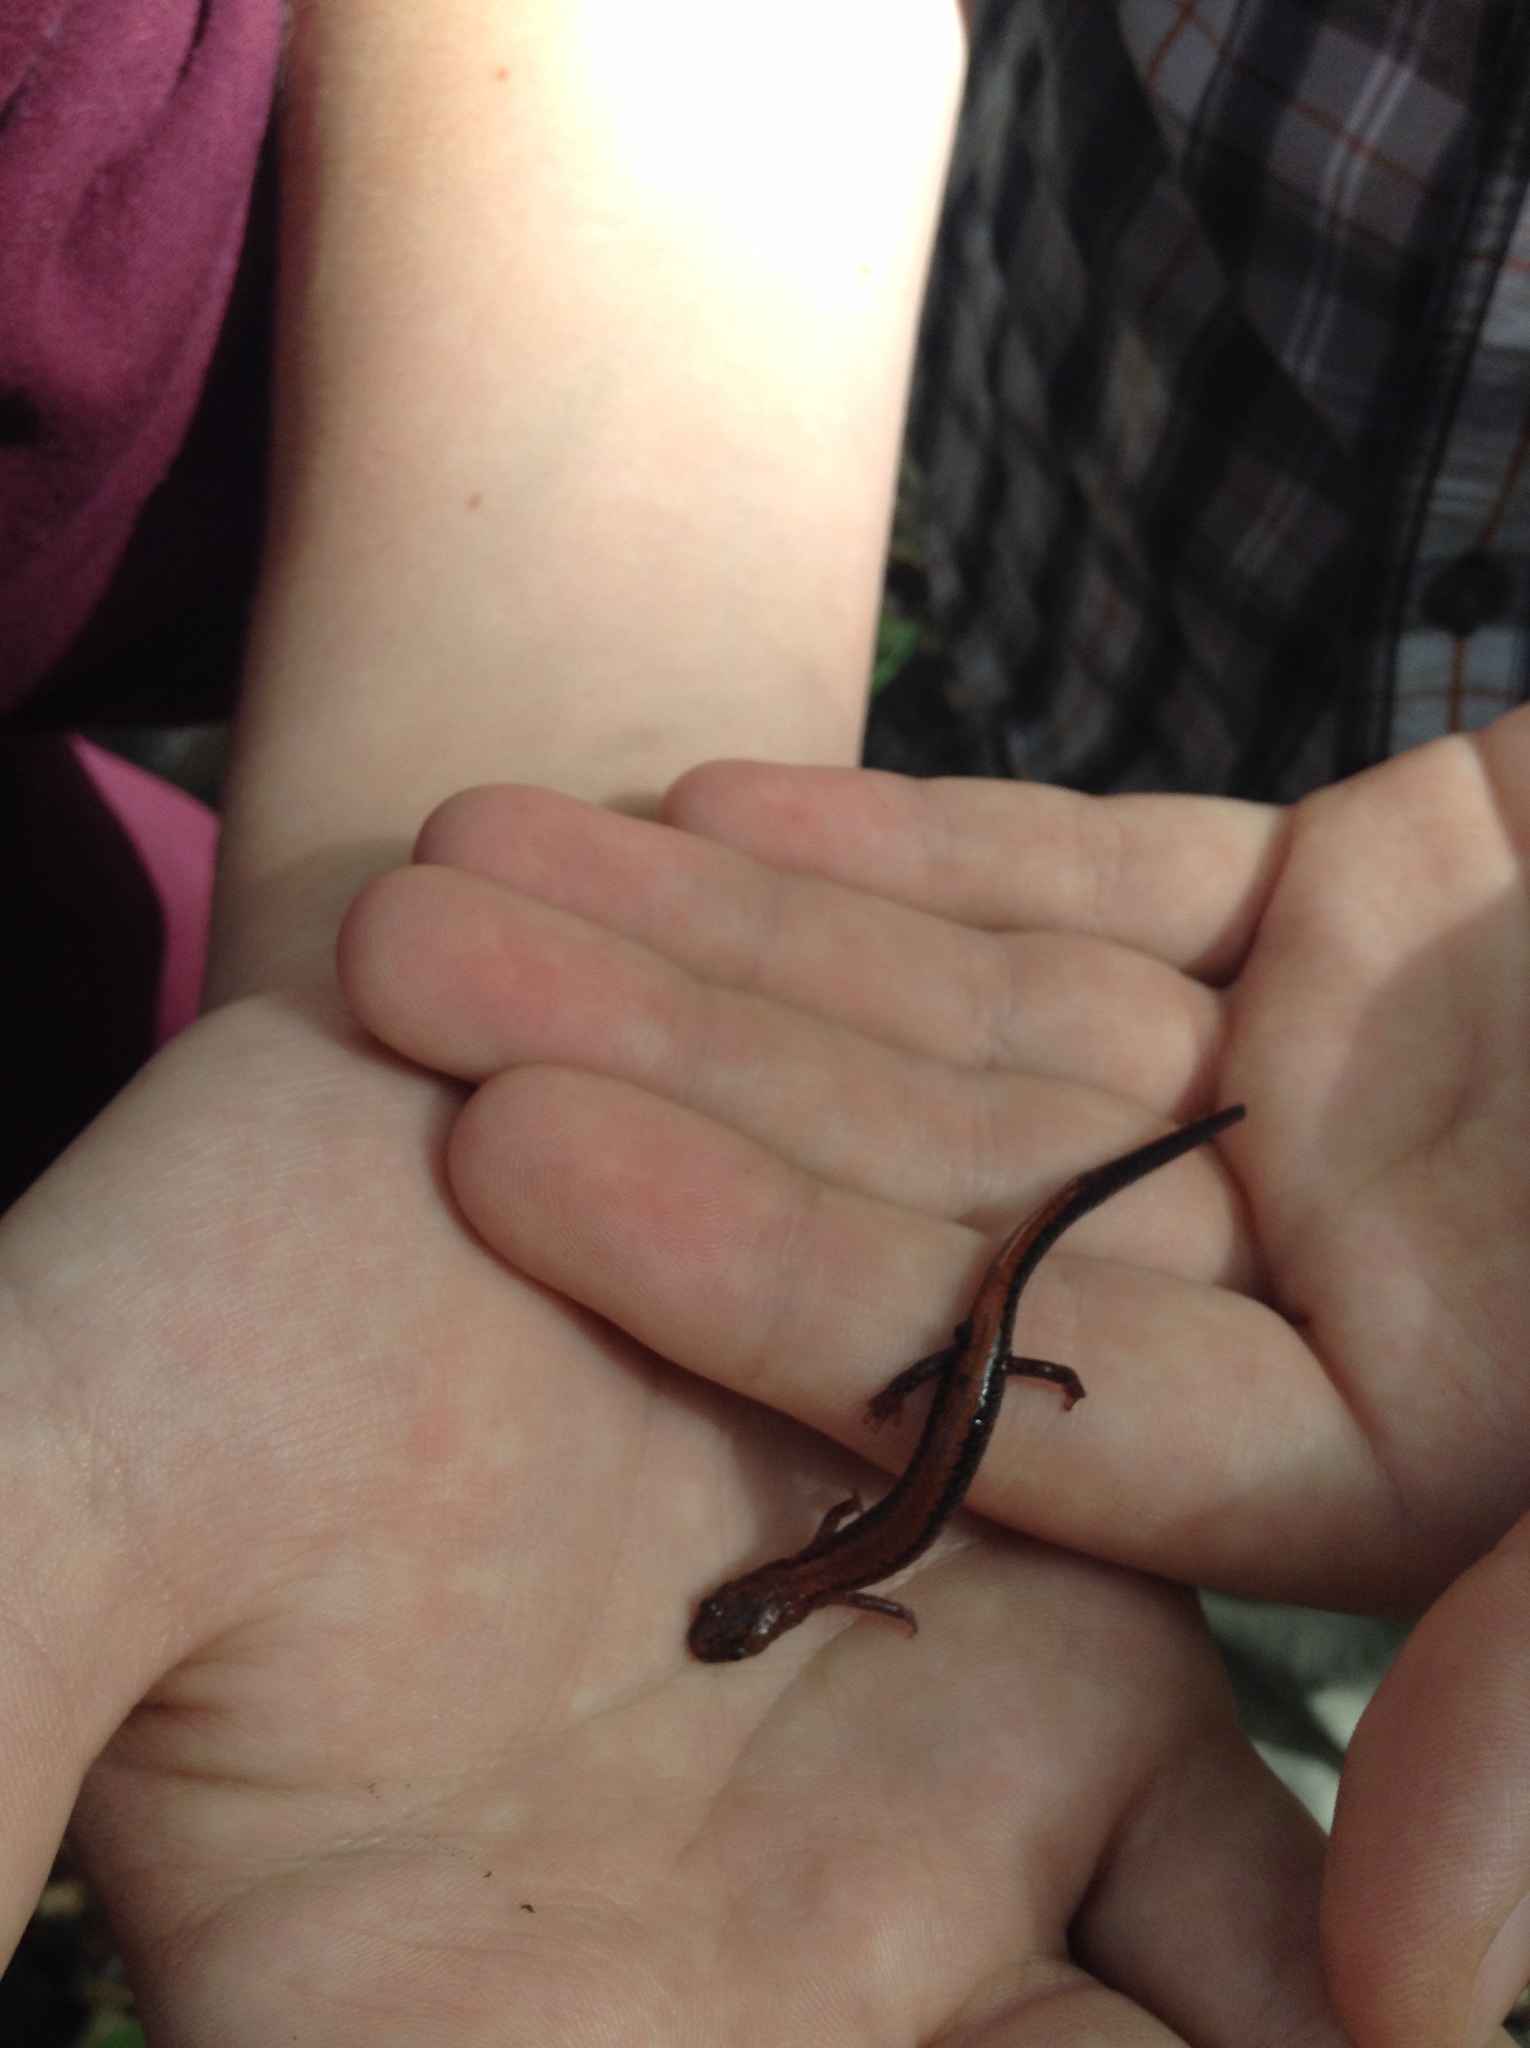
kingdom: Animalia
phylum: Chordata
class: Amphibia
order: Caudata
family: Plethodontidae
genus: Plethodon
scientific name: Plethodon cinereus
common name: Redback salamander
